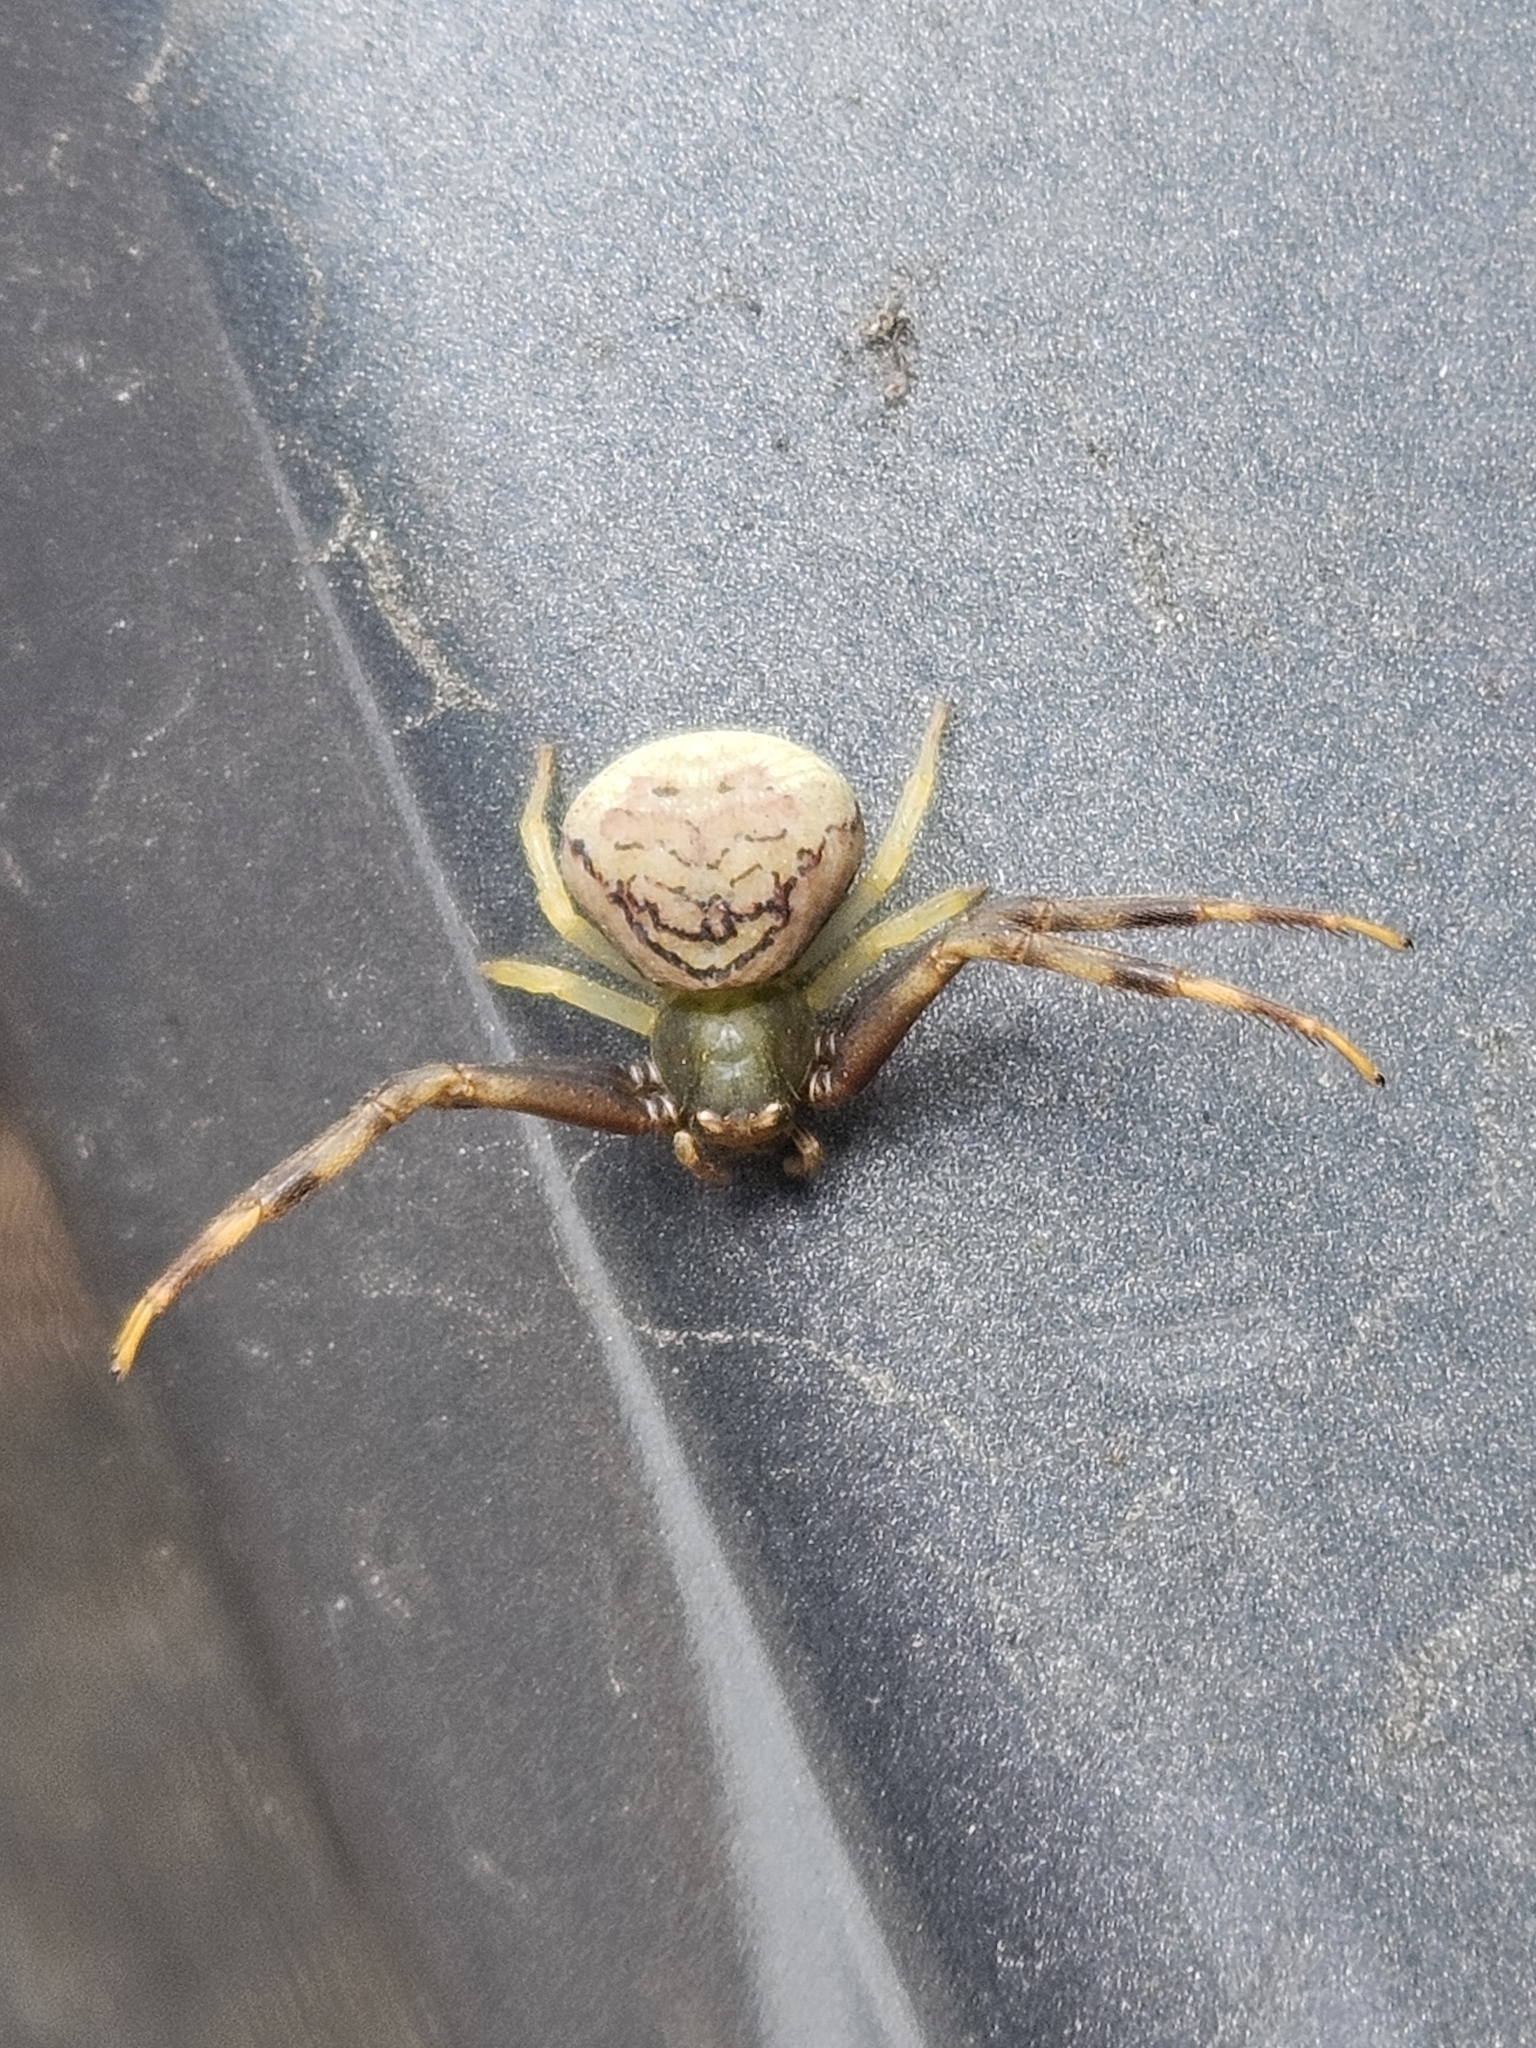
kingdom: Animalia
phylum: Arthropoda
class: Arachnida
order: Araneae
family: Thomisidae
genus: Runcinioides
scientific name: Runcinioides litteratus
